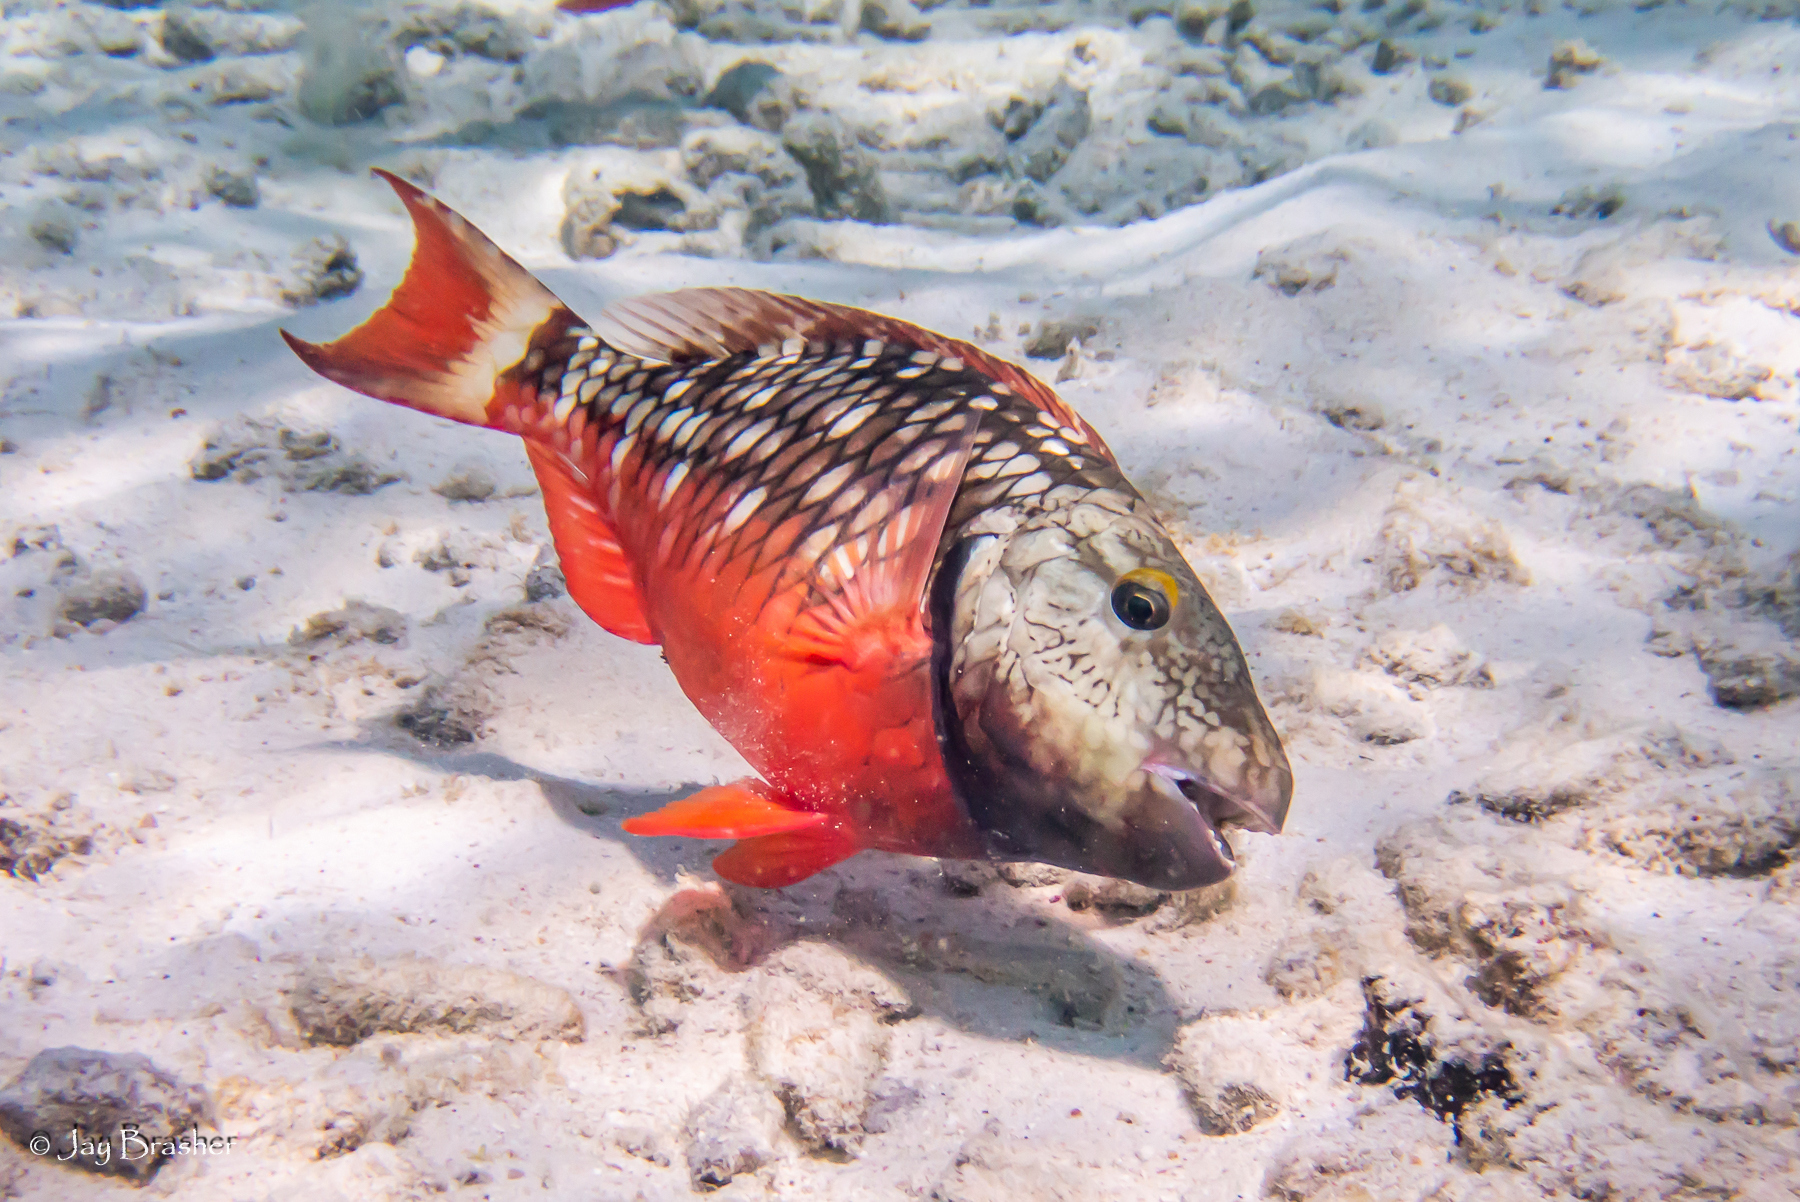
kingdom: Animalia
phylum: Chordata
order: Perciformes
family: Scaridae
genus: Sparisoma
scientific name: Sparisoma viride
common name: Stoplight parrotfish
